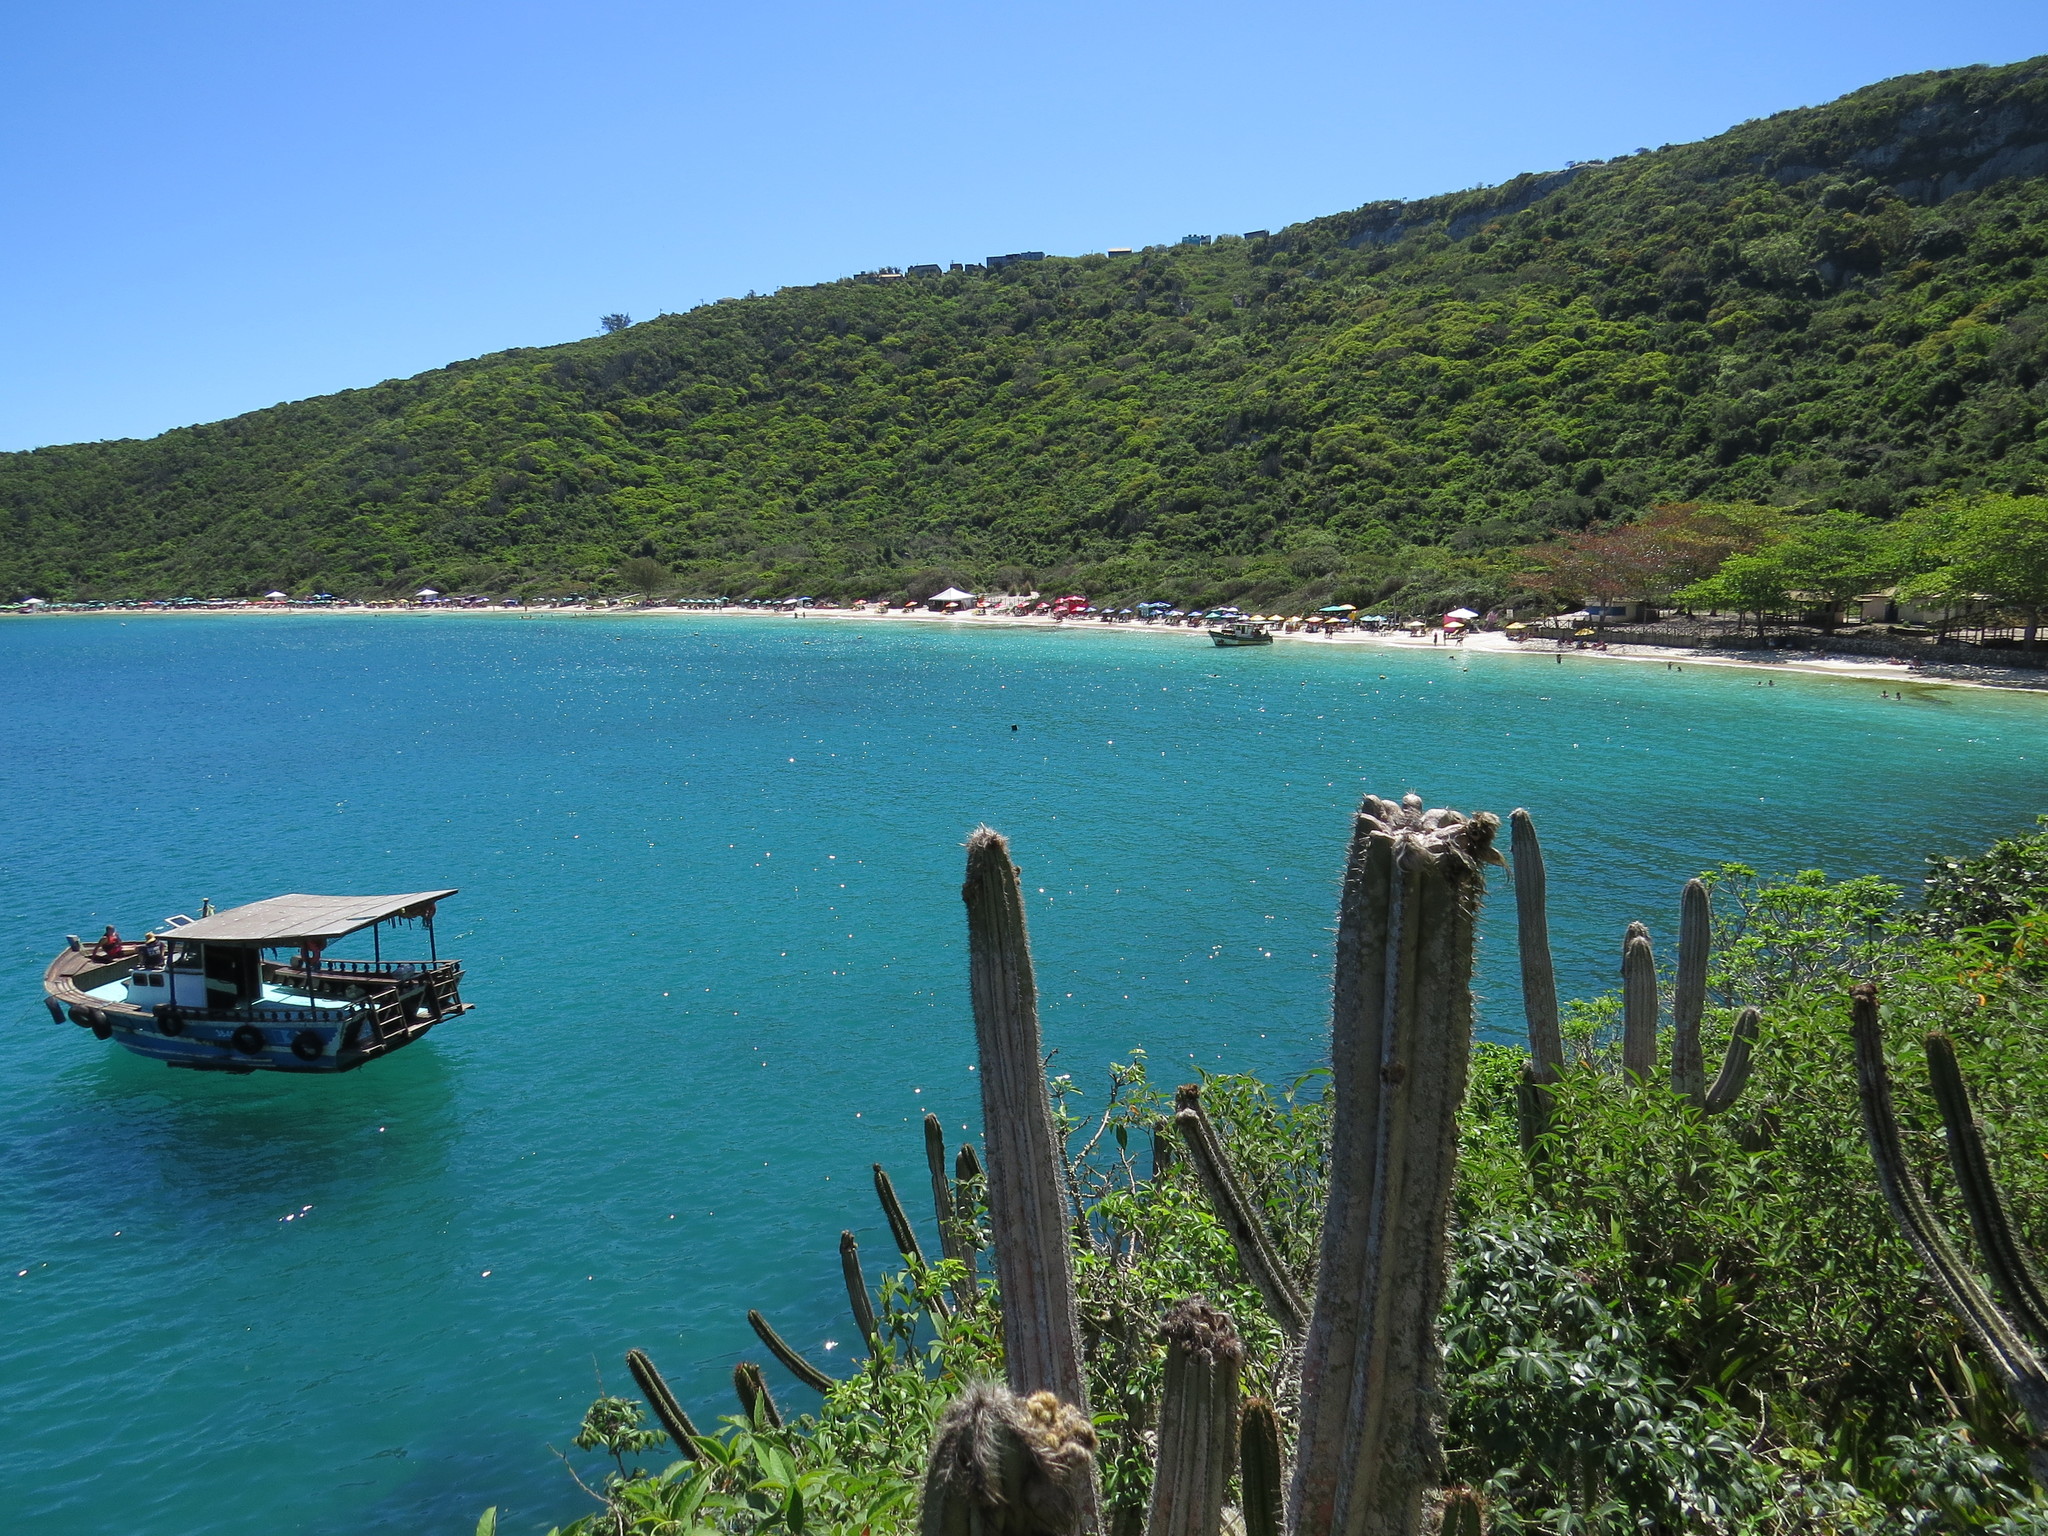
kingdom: Plantae
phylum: Tracheophyta
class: Magnoliopsida
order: Caryophyllales
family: Cactaceae
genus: Pilosocereus
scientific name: Pilosocereus ulei
